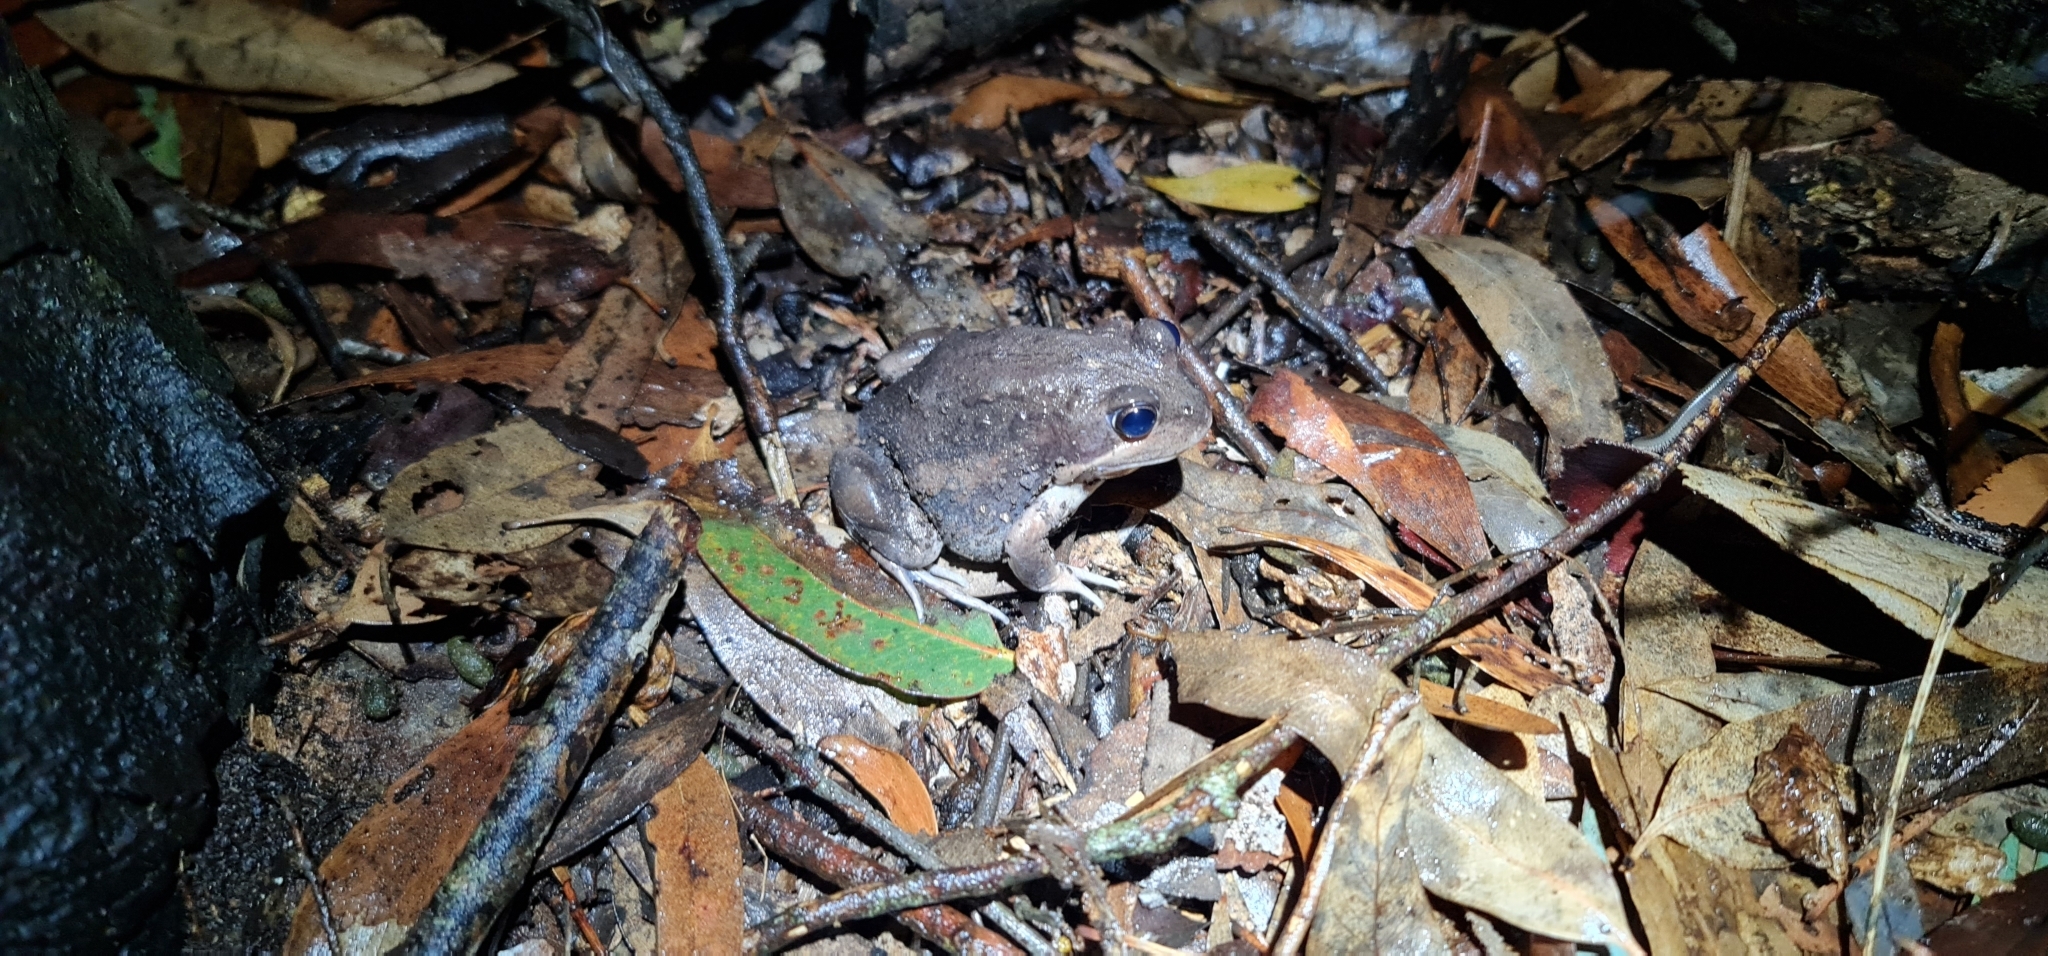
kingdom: Animalia
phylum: Chordata
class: Amphibia
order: Anura
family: Limnodynastidae
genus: Limnodynastes
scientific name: Limnodynastes dumerilii
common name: Banjo frog
